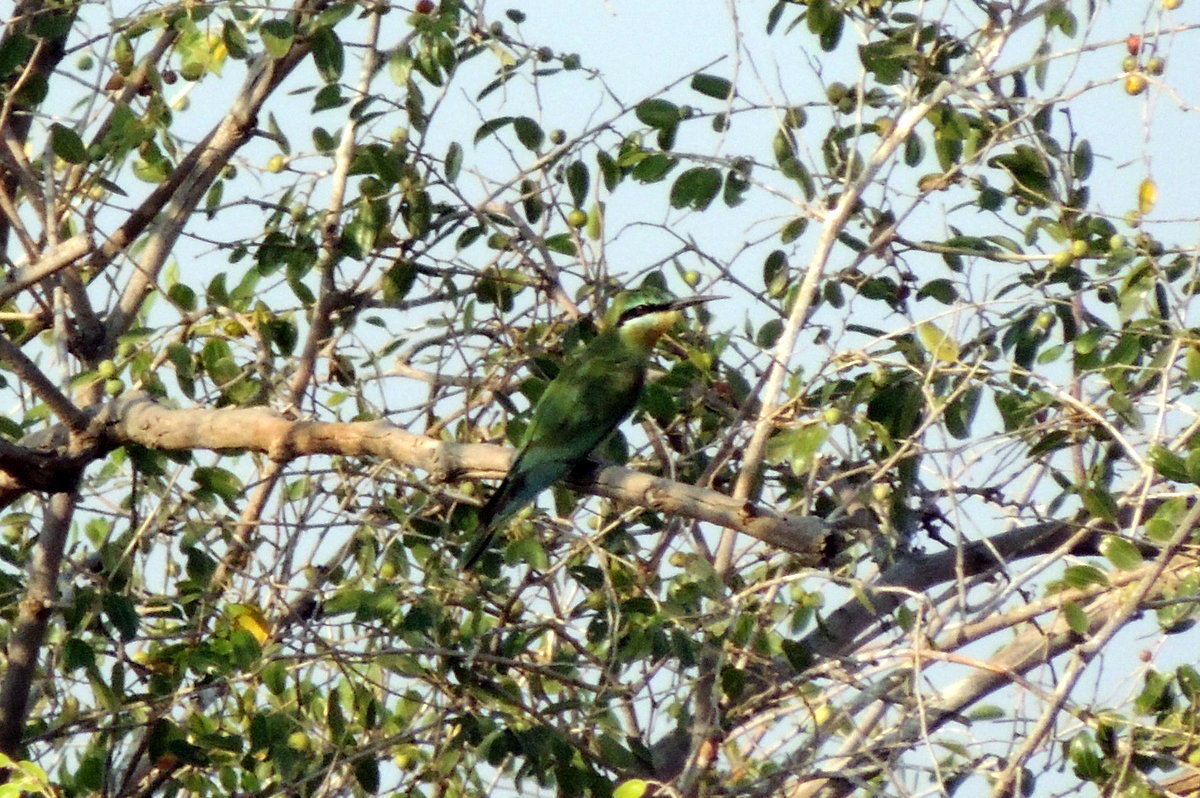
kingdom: Animalia
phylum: Chordata
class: Aves
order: Coraciiformes
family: Meropidae
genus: Merops
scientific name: Merops persicus
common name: Blue-cheeked bee-eater
